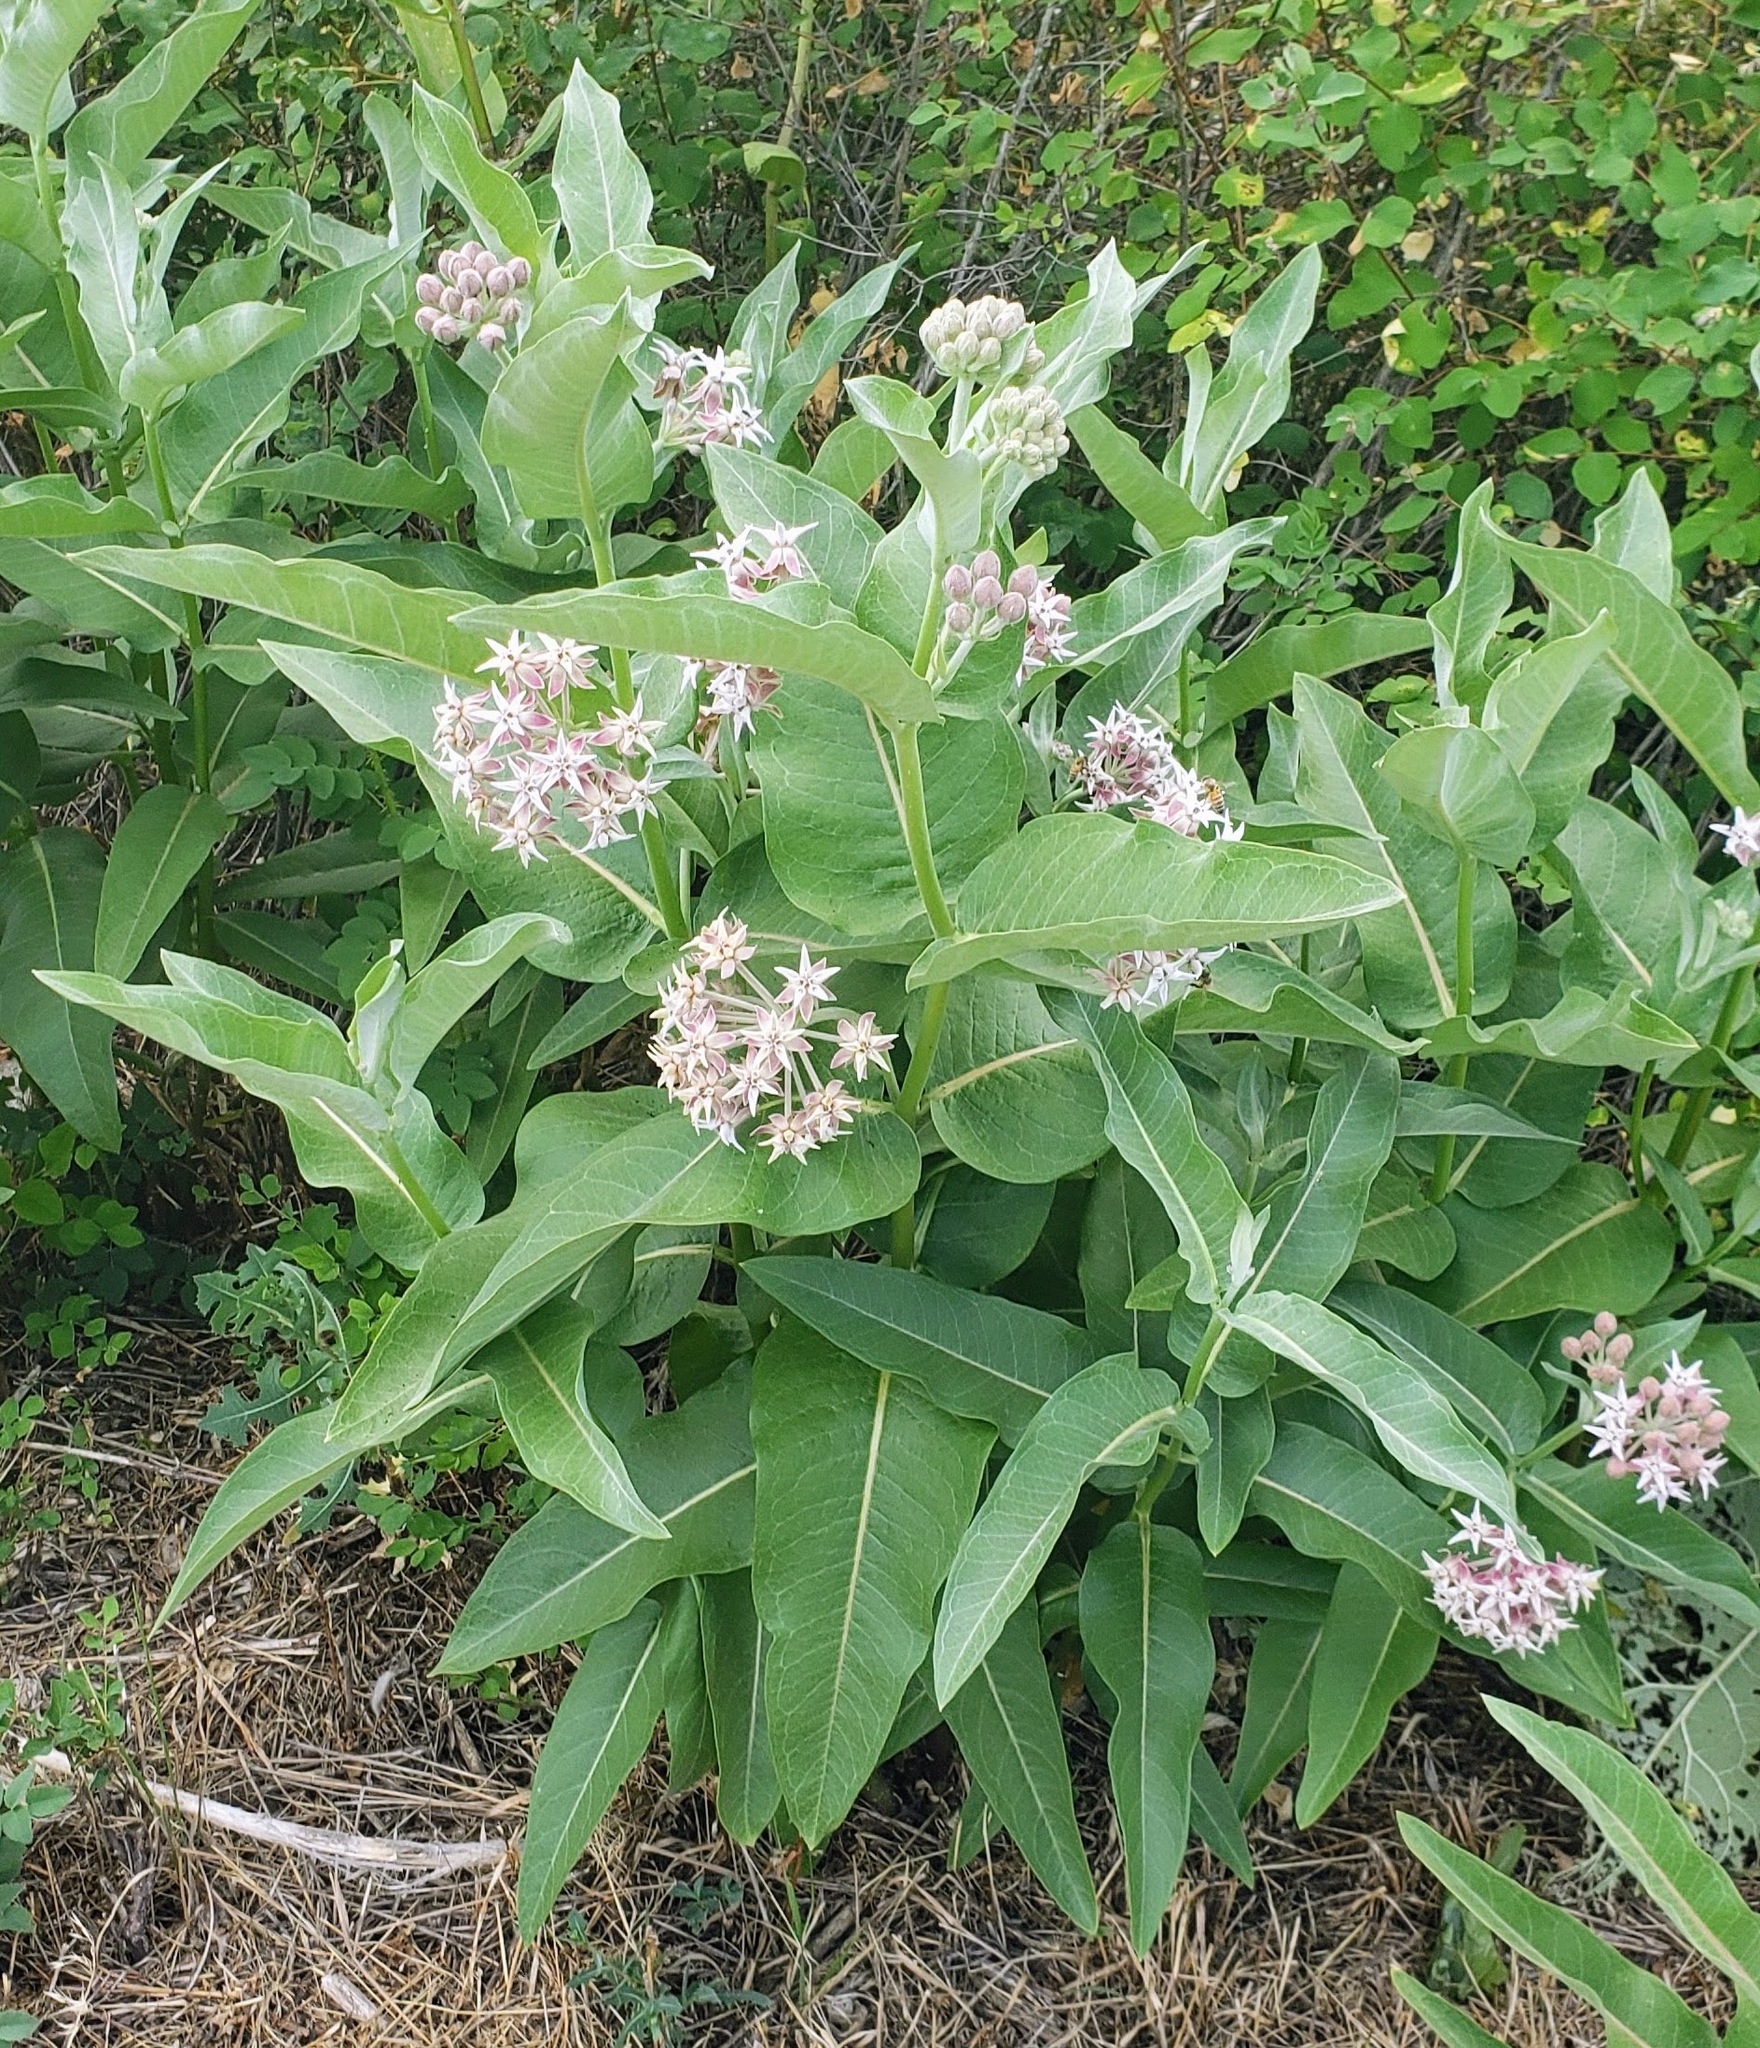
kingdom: Plantae
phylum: Tracheophyta
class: Magnoliopsida
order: Gentianales
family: Apocynaceae
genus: Asclepias
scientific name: Asclepias speciosa
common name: Showy milkweed
